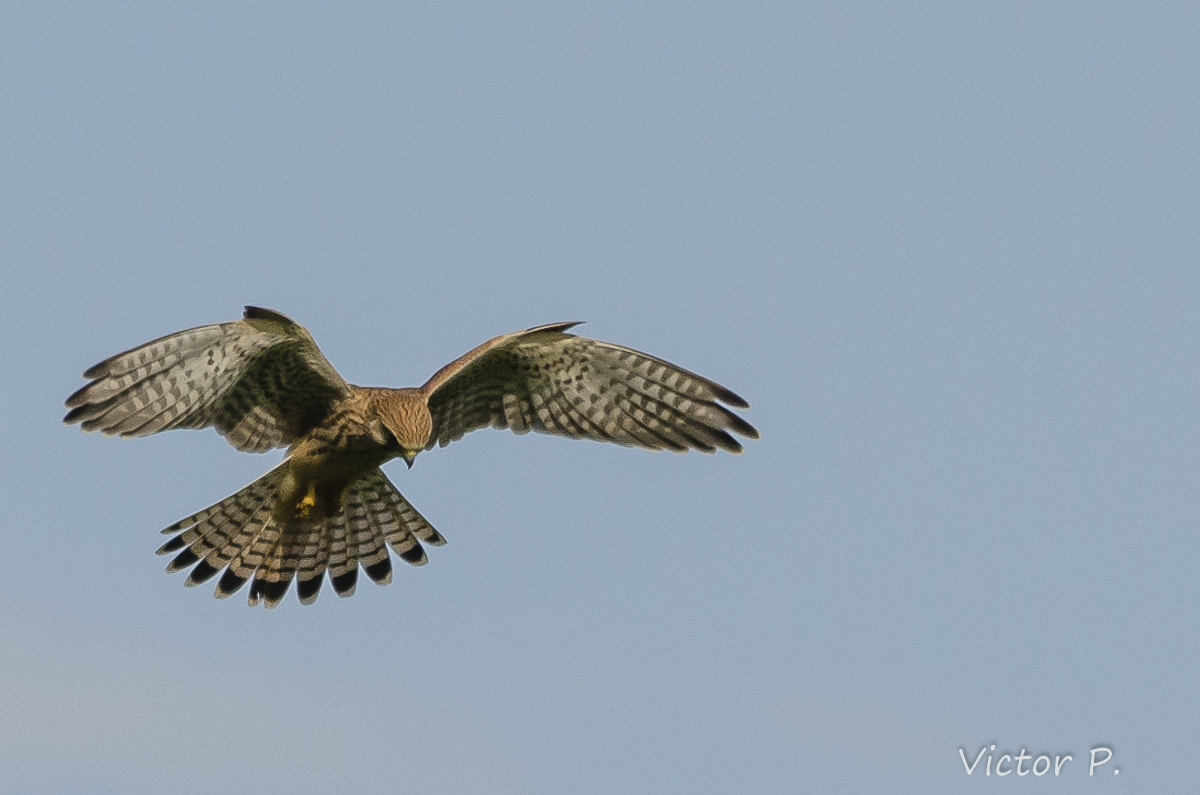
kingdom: Animalia
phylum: Chordata
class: Aves
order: Falconiformes
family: Falconidae
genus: Falco
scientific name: Falco tinnunculus
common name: Common kestrel
